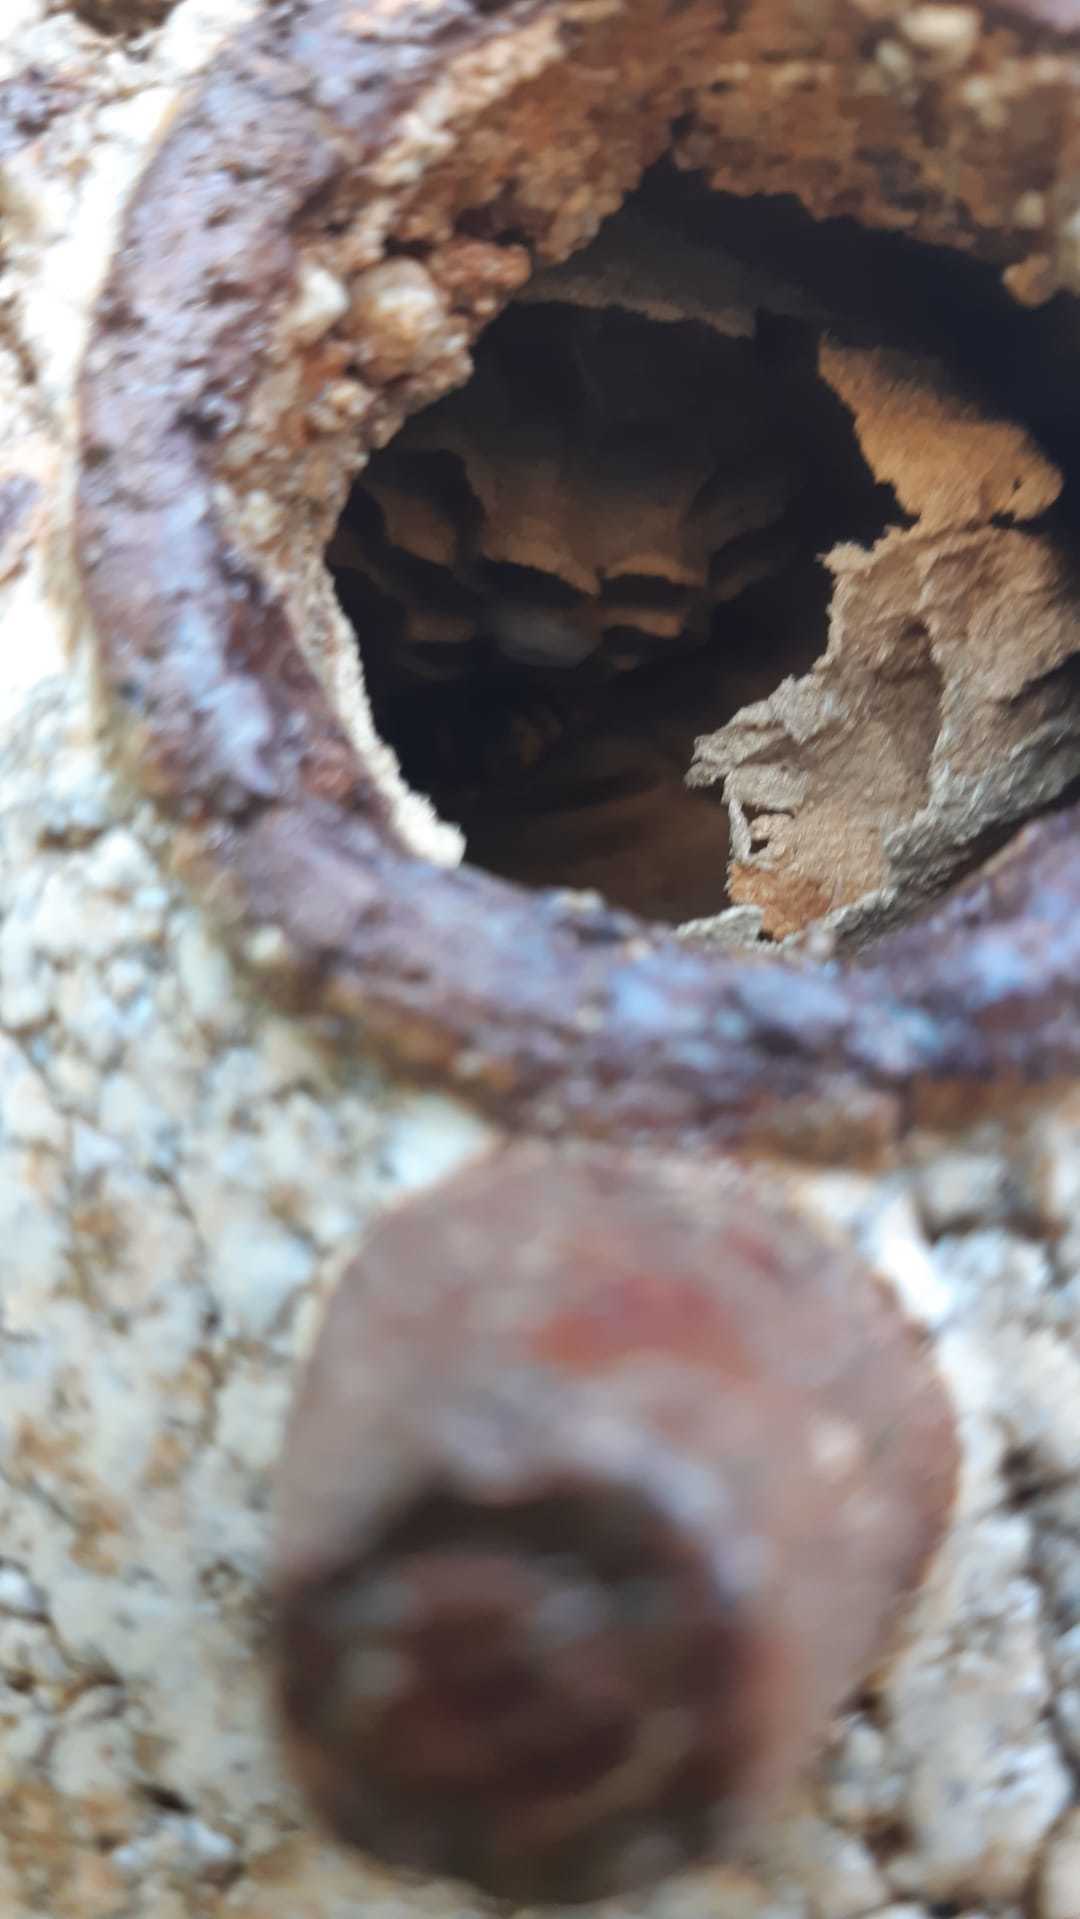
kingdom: Animalia
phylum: Arthropoda
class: Insecta
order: Hymenoptera
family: Vespidae
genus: Vespa
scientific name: Vespa crabro
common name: Hornet
